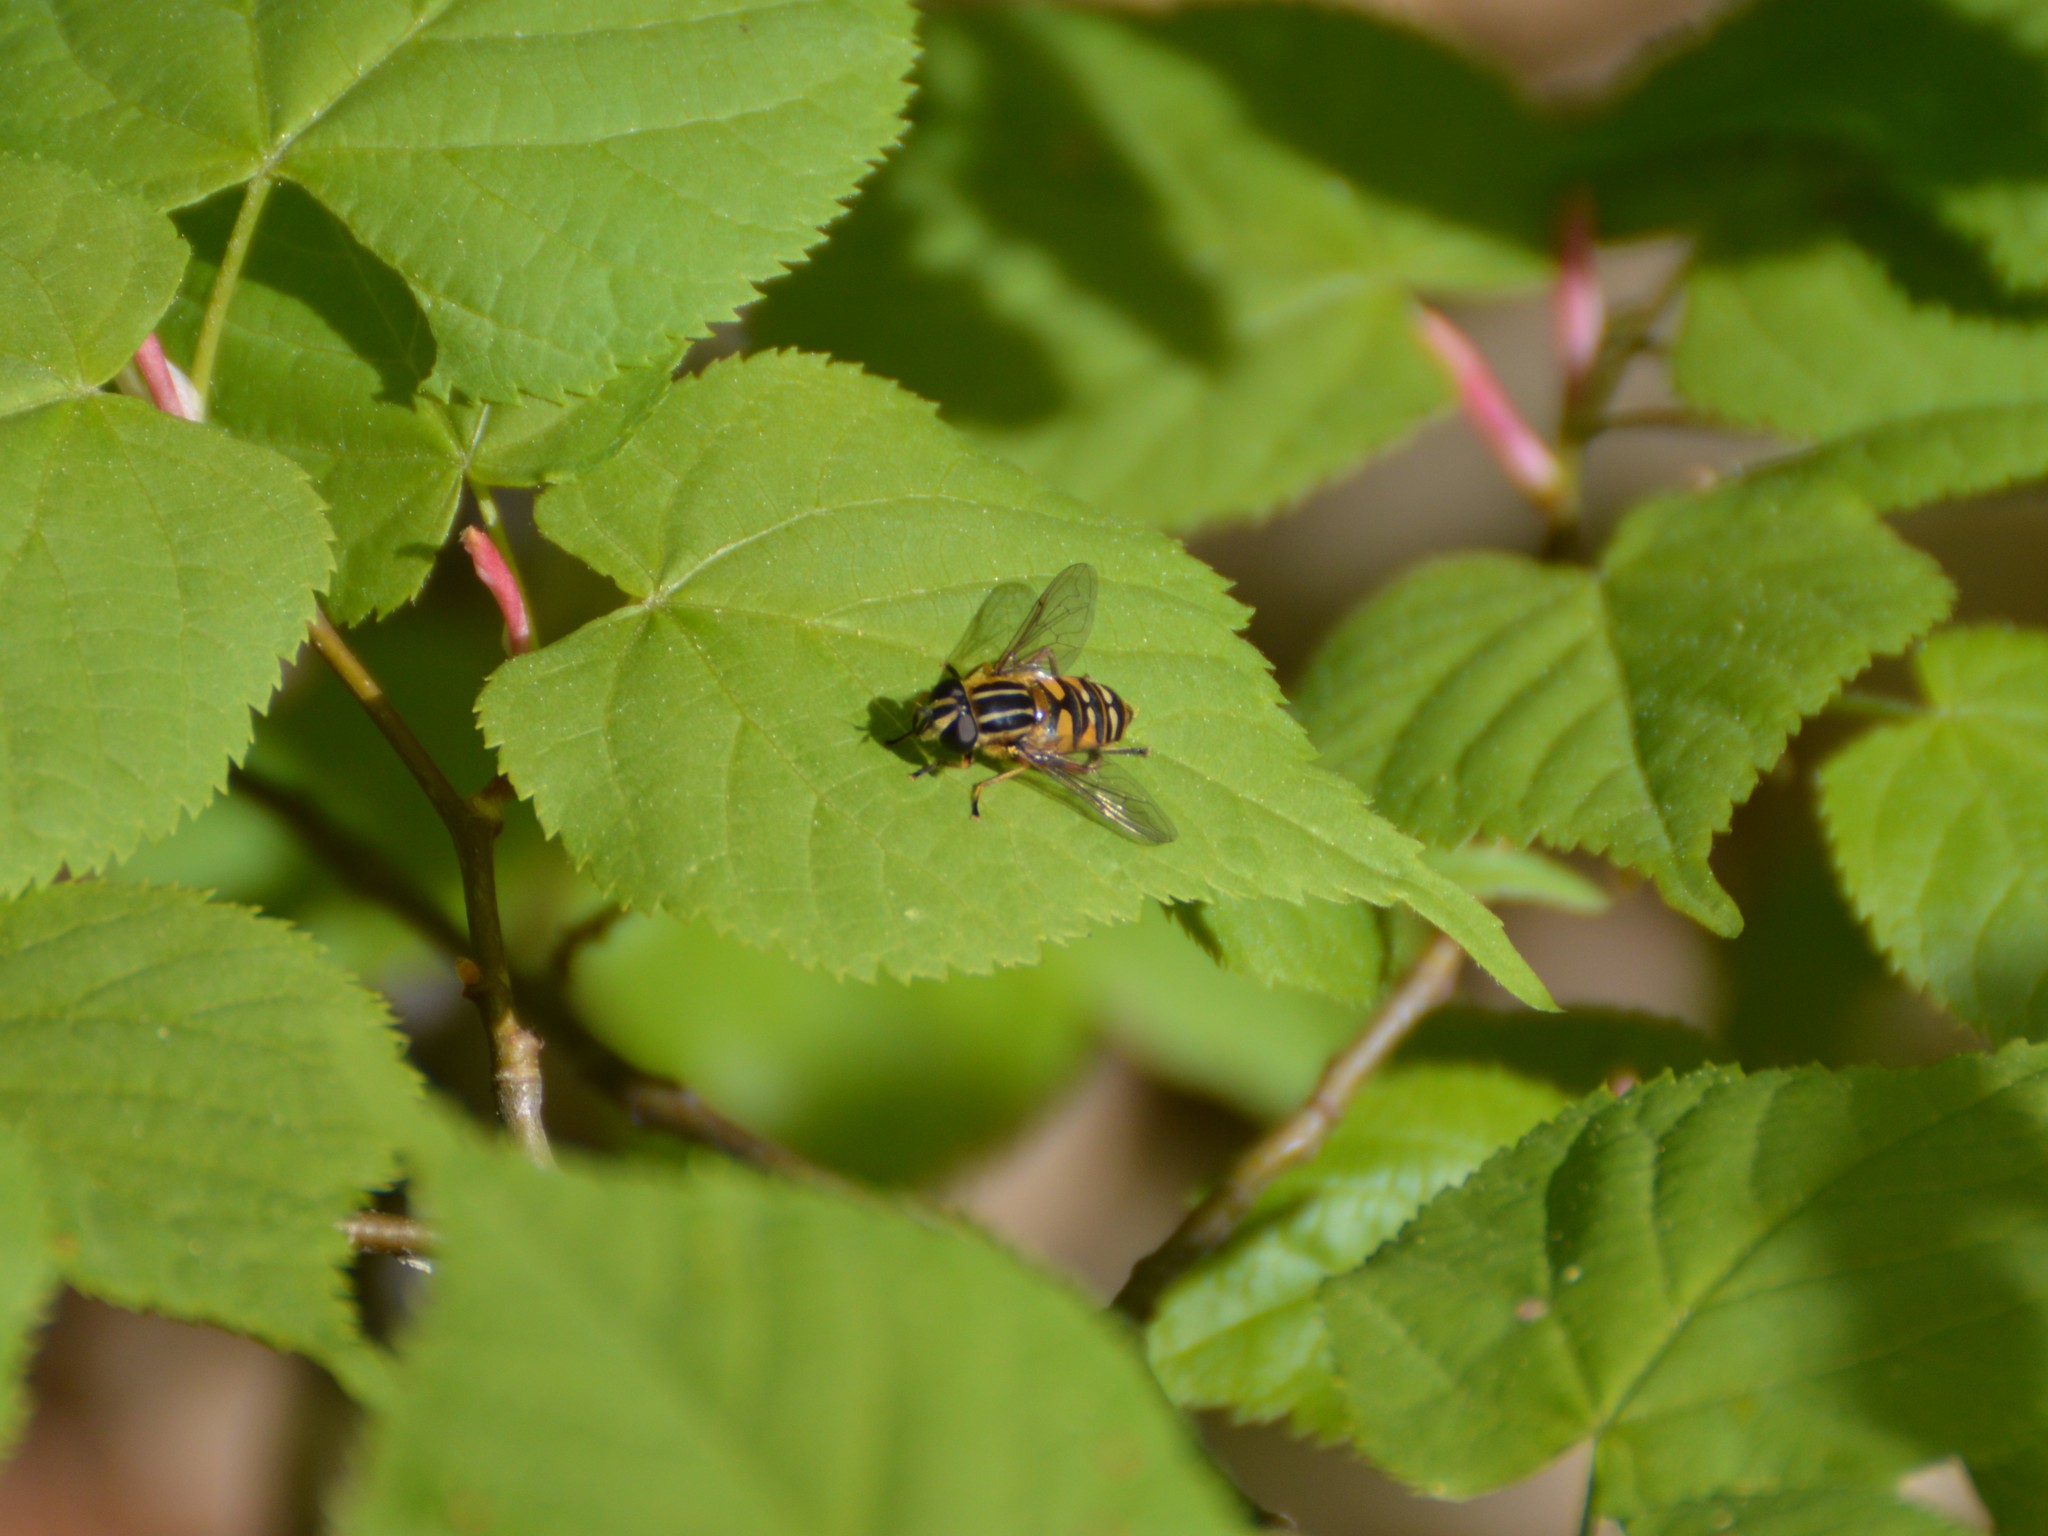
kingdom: Animalia
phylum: Arthropoda
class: Insecta
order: Diptera
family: Syrphidae
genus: Helophilus
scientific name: Helophilus pendulus
